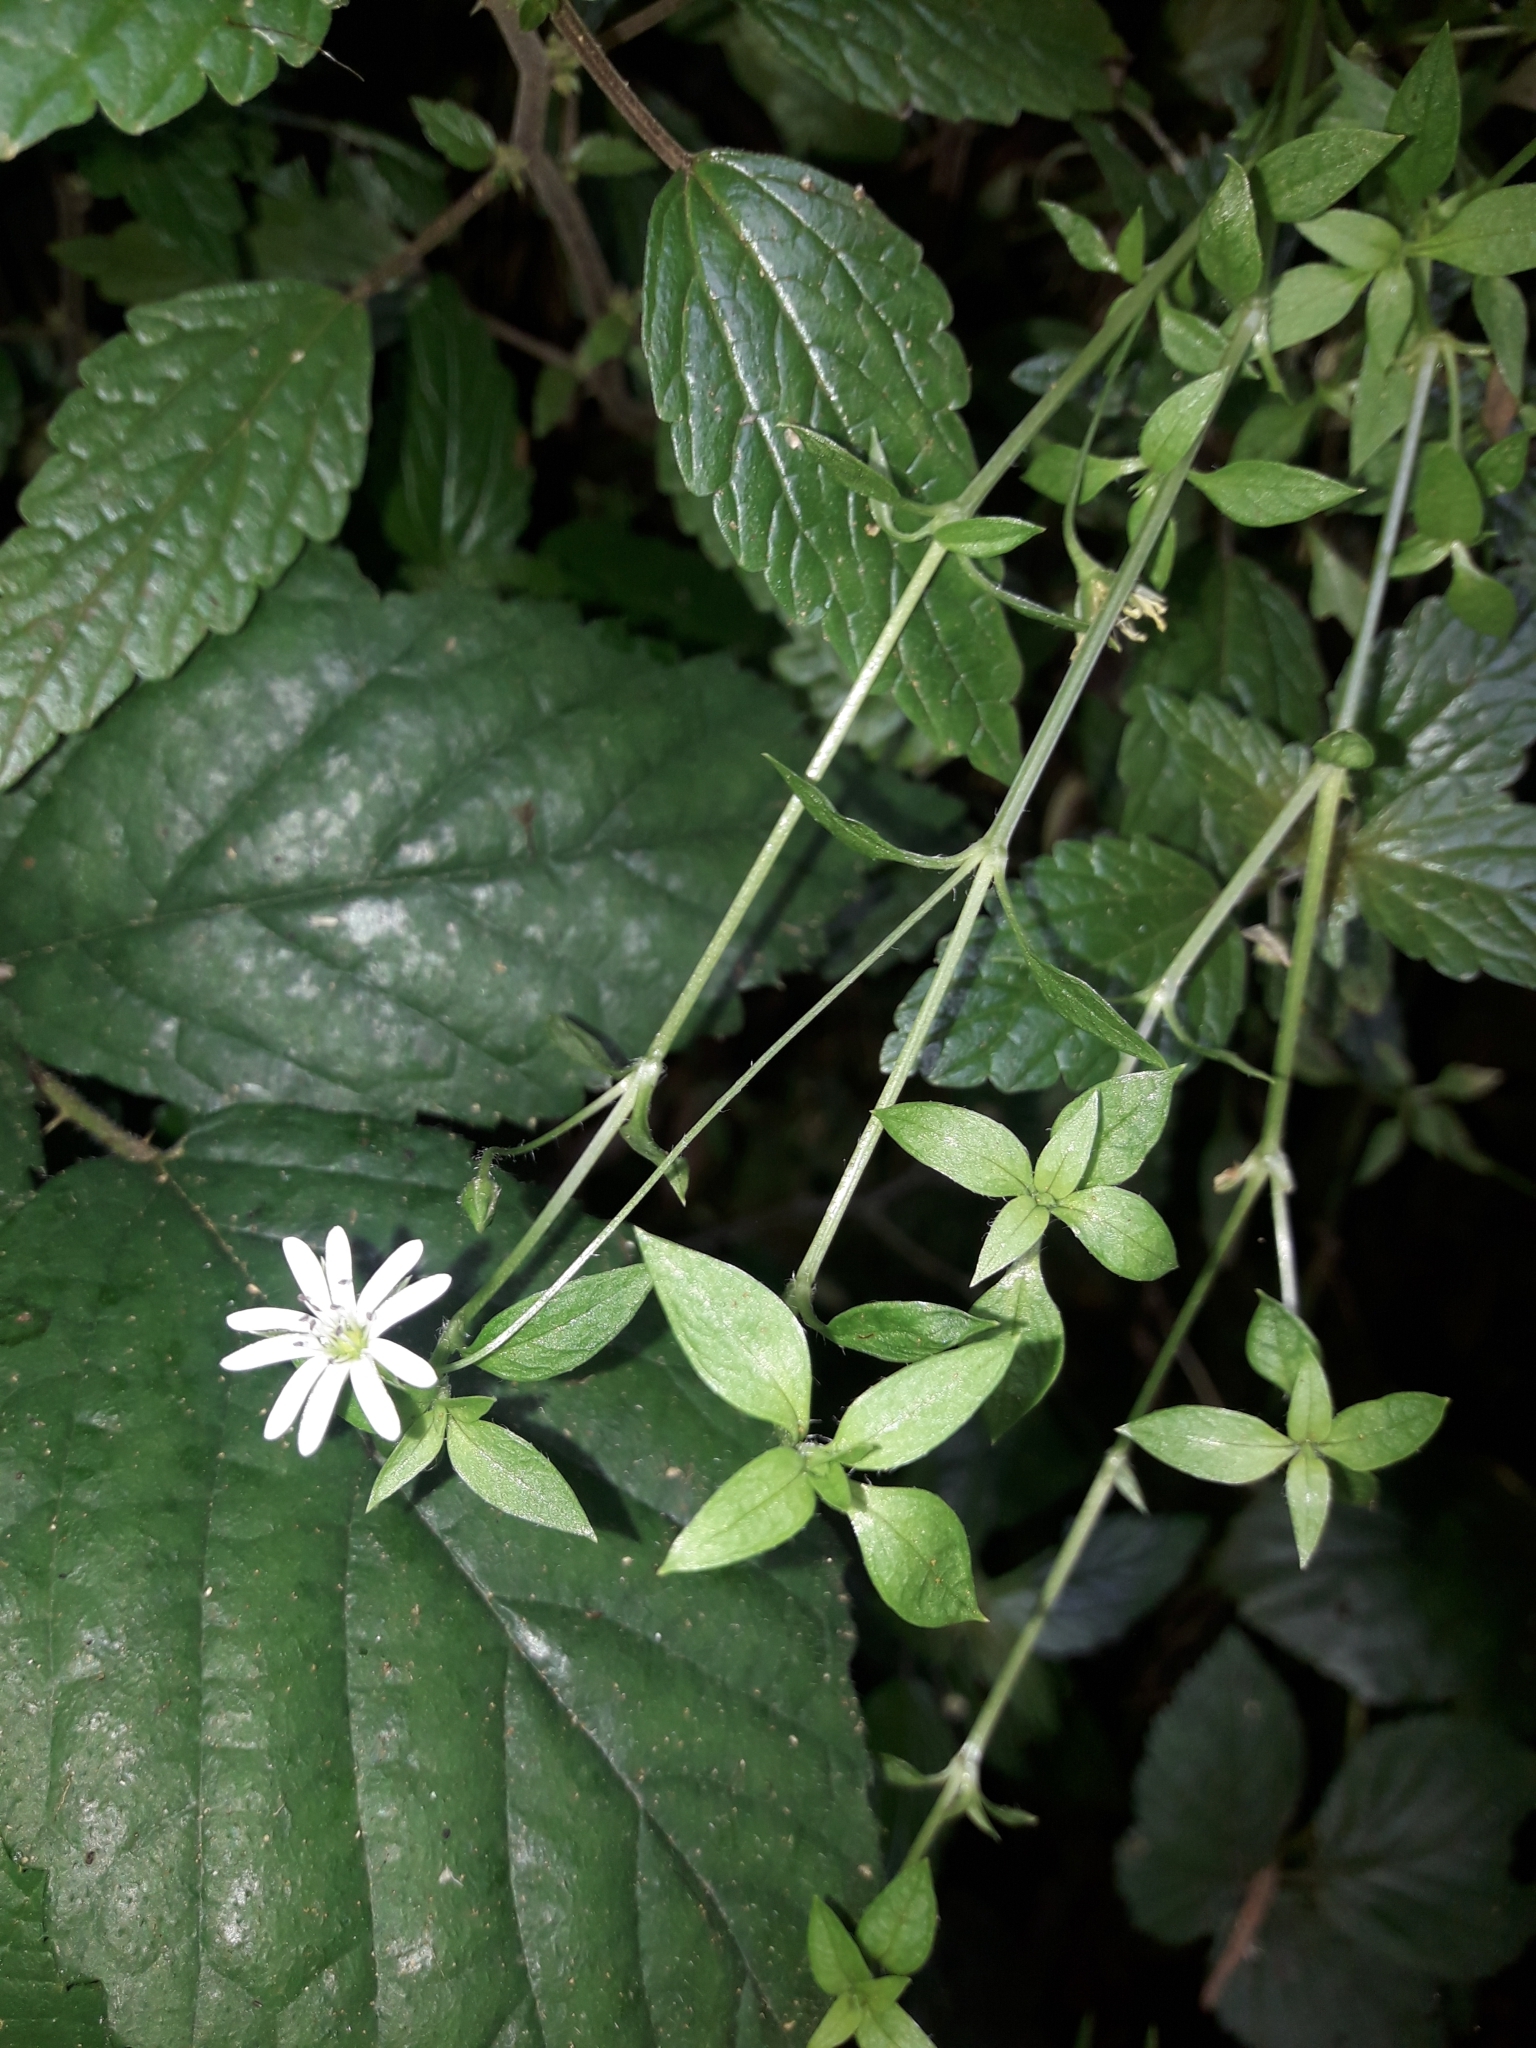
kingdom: Plantae
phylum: Tracheophyta
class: Magnoliopsida
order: Caryophyllales
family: Caryophyllaceae
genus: Stellaria
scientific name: Stellaria flaccida
